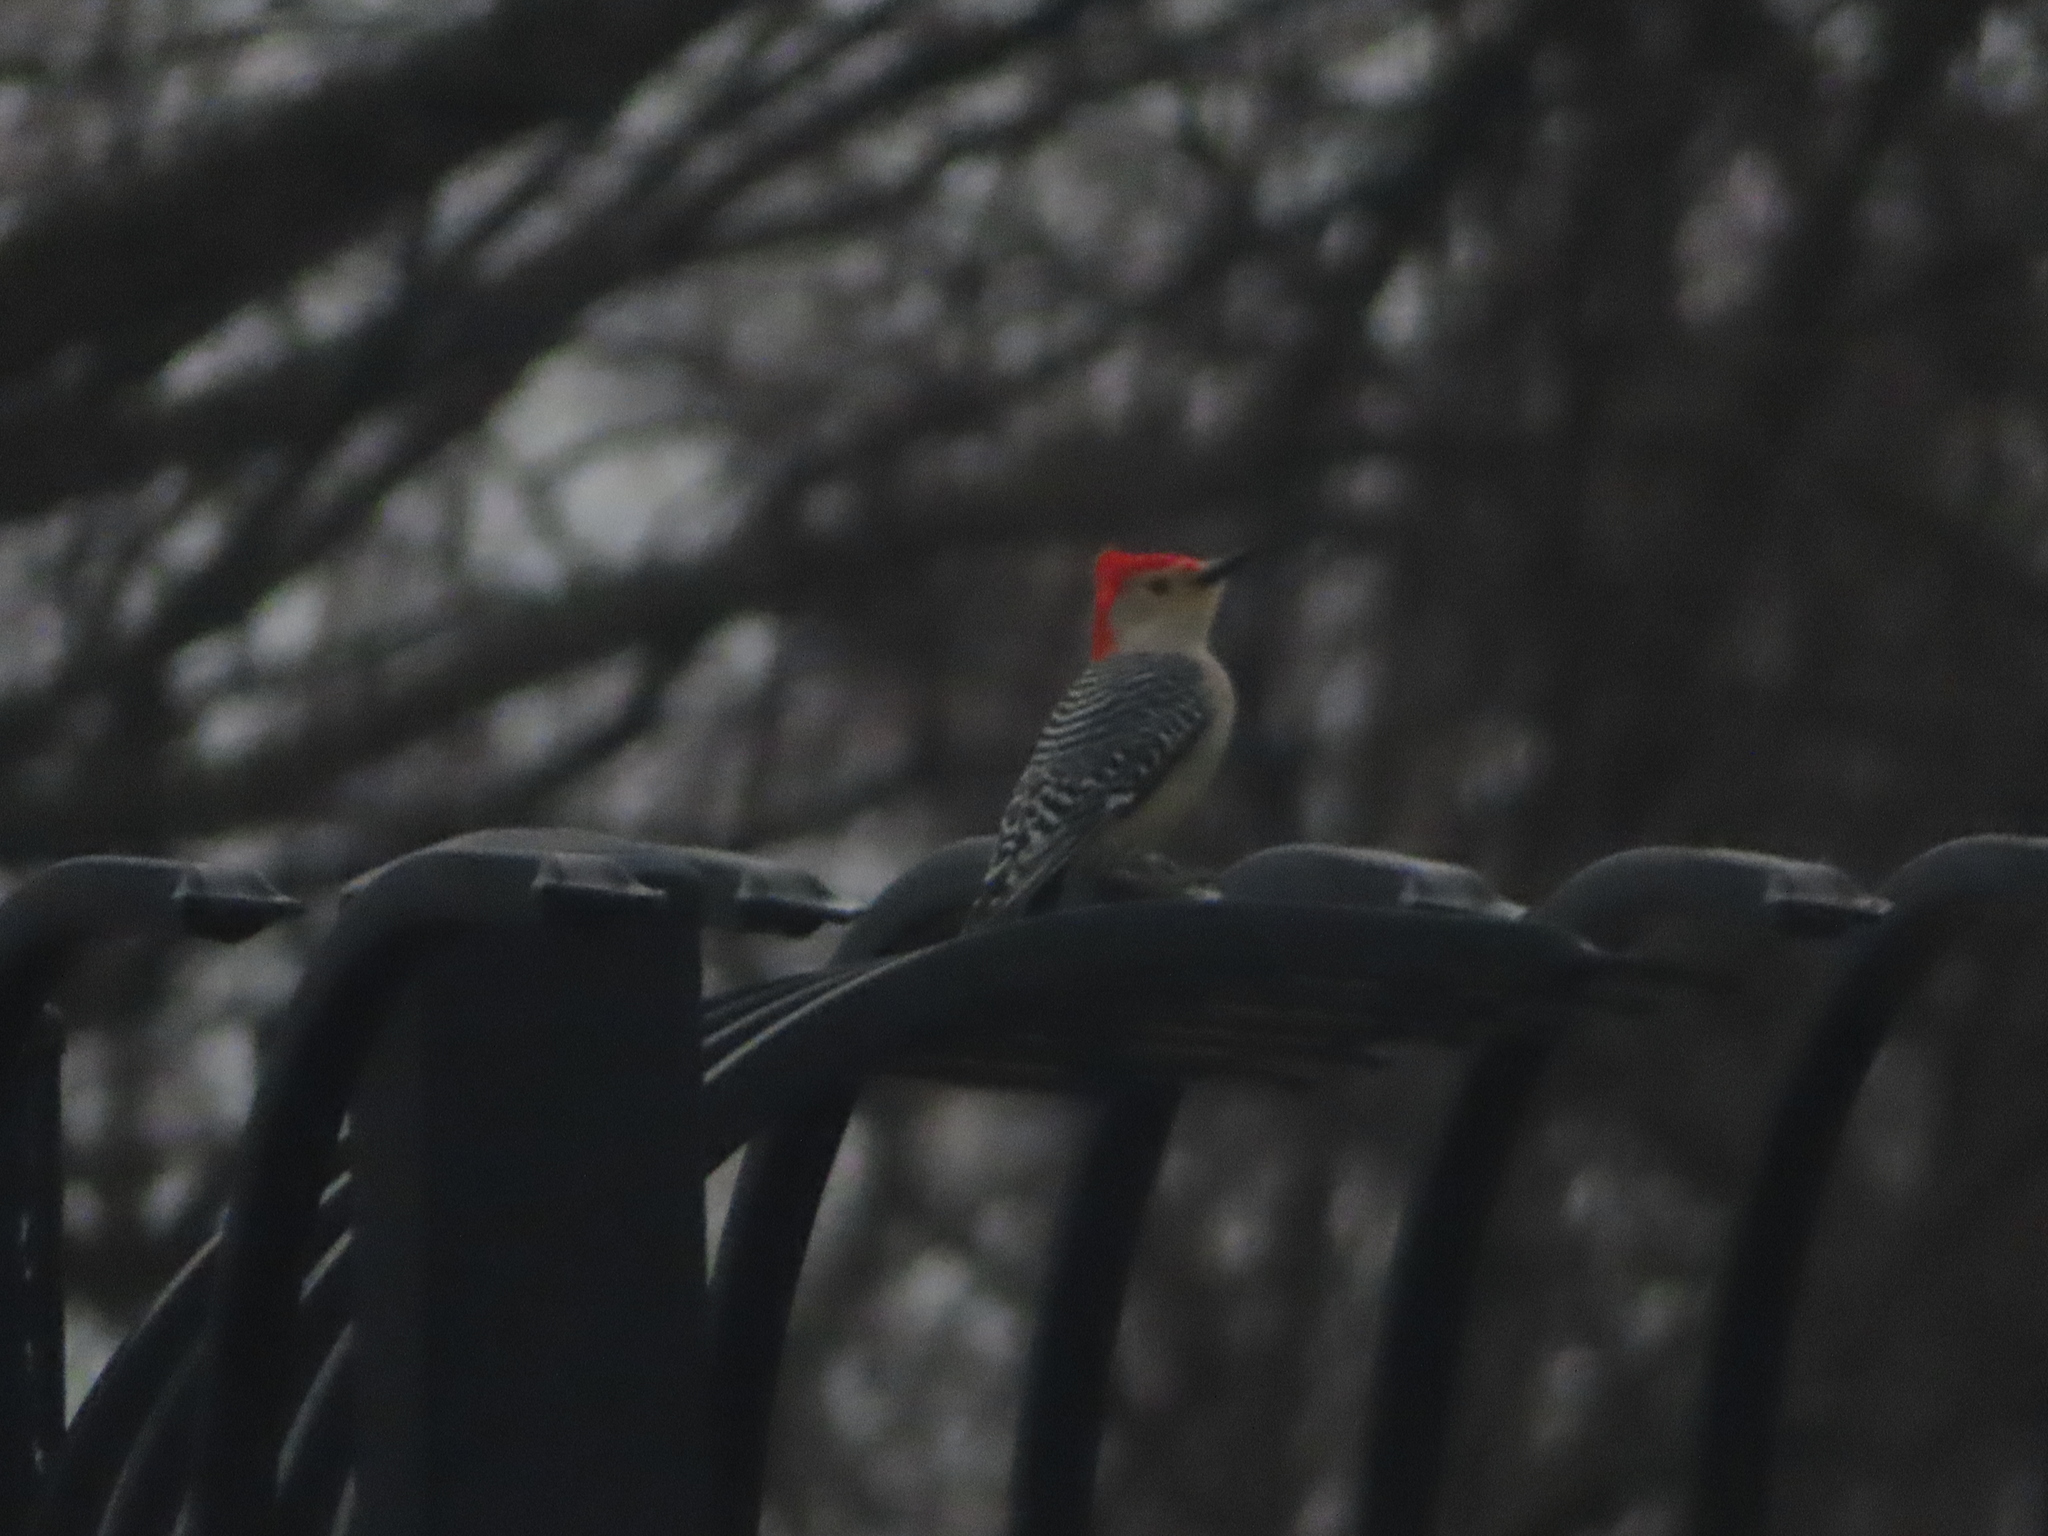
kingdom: Animalia
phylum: Chordata
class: Aves
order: Piciformes
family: Picidae
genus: Melanerpes
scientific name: Melanerpes carolinus
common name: Red-bellied woodpecker
